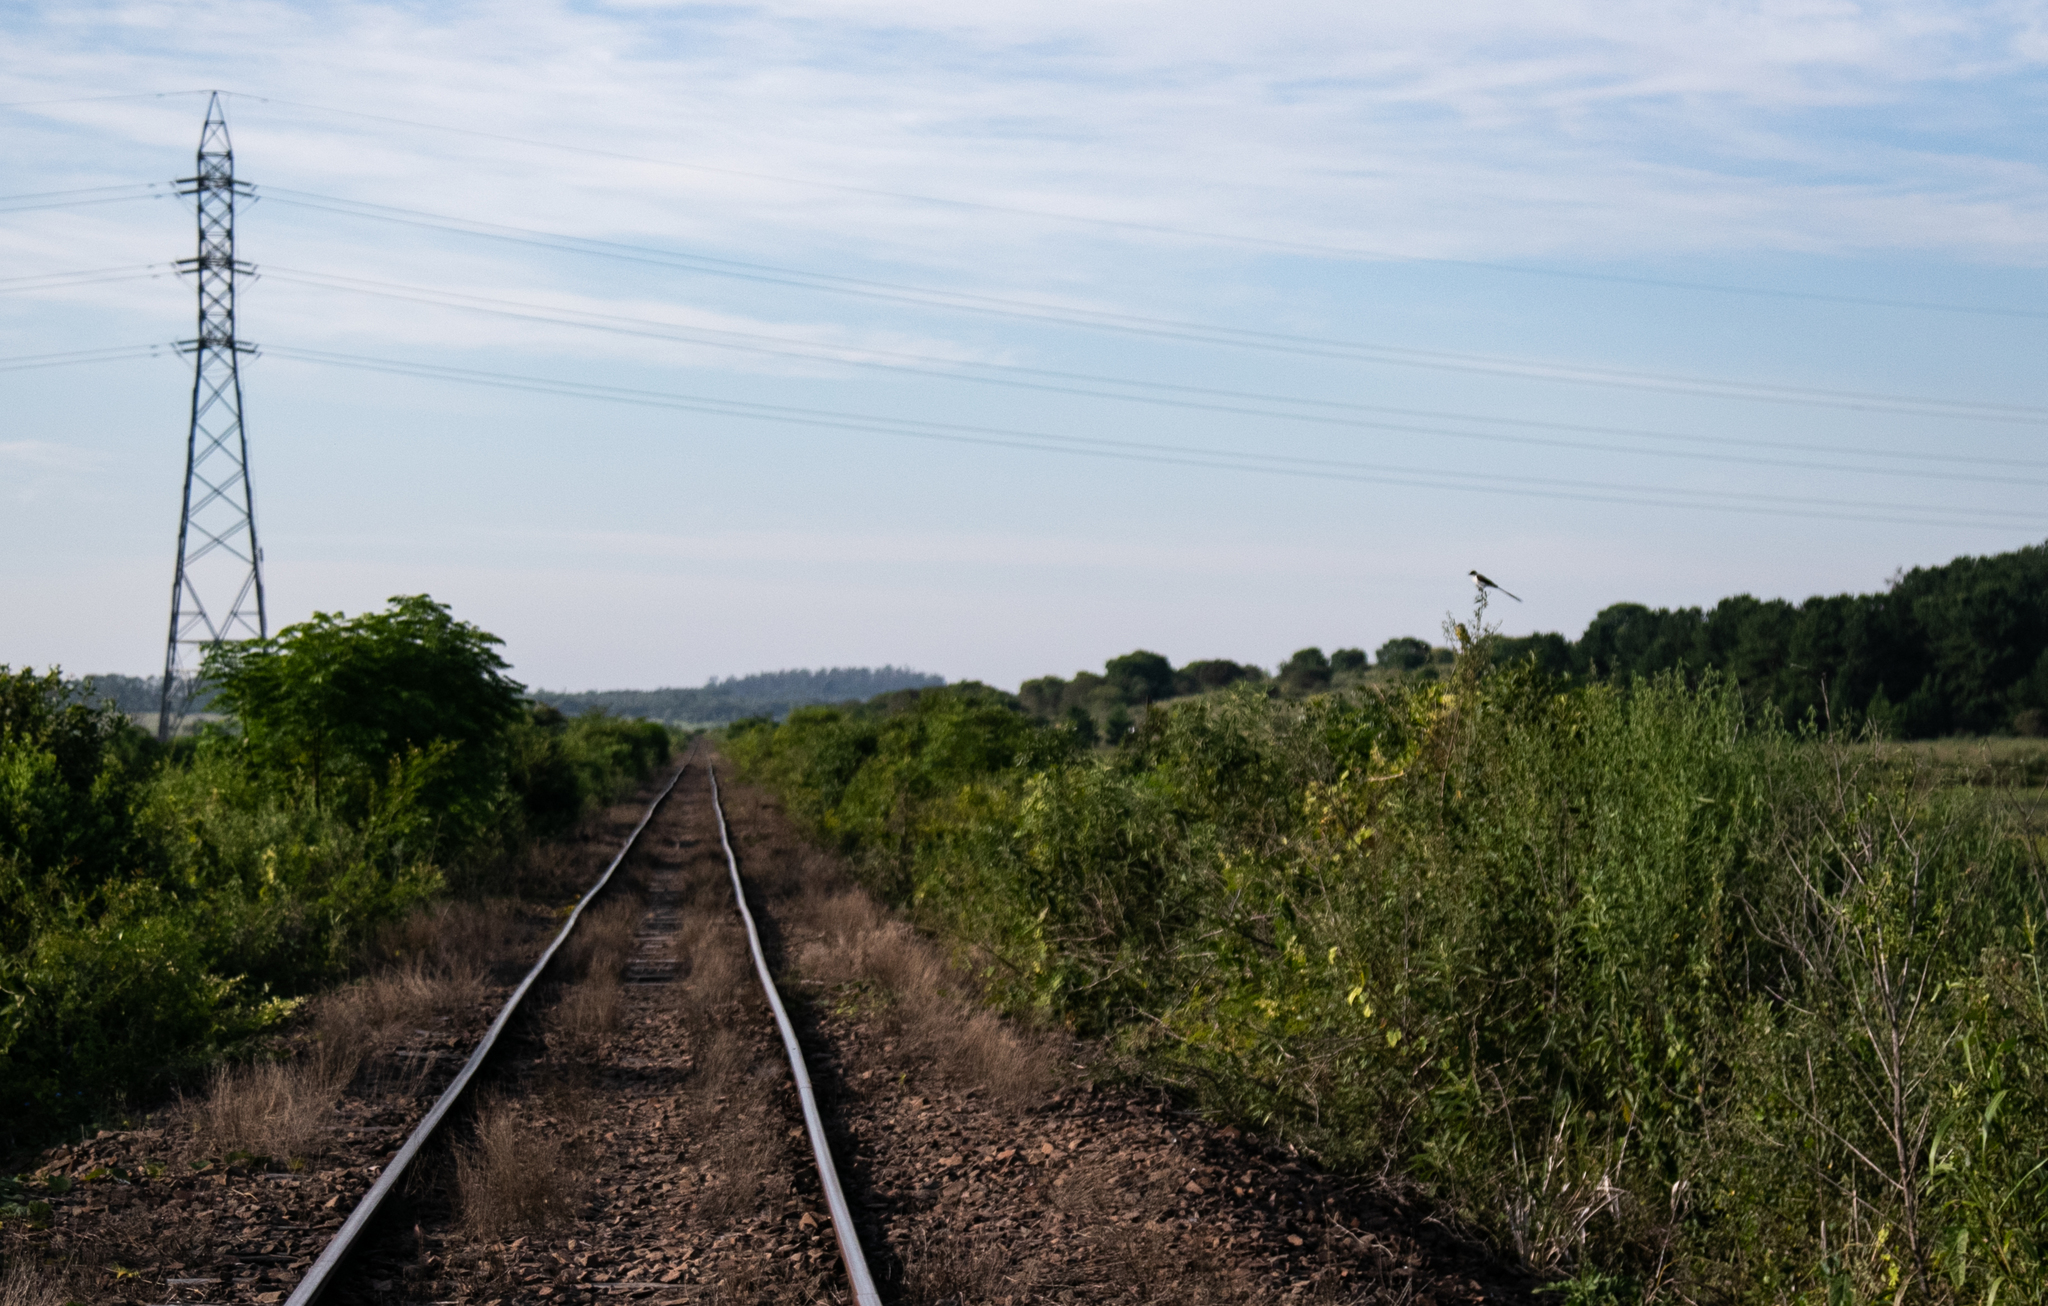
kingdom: Animalia
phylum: Chordata
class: Aves
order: Passeriformes
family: Tyrannidae
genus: Tyrannus
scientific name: Tyrannus savana
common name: Fork-tailed flycatcher
